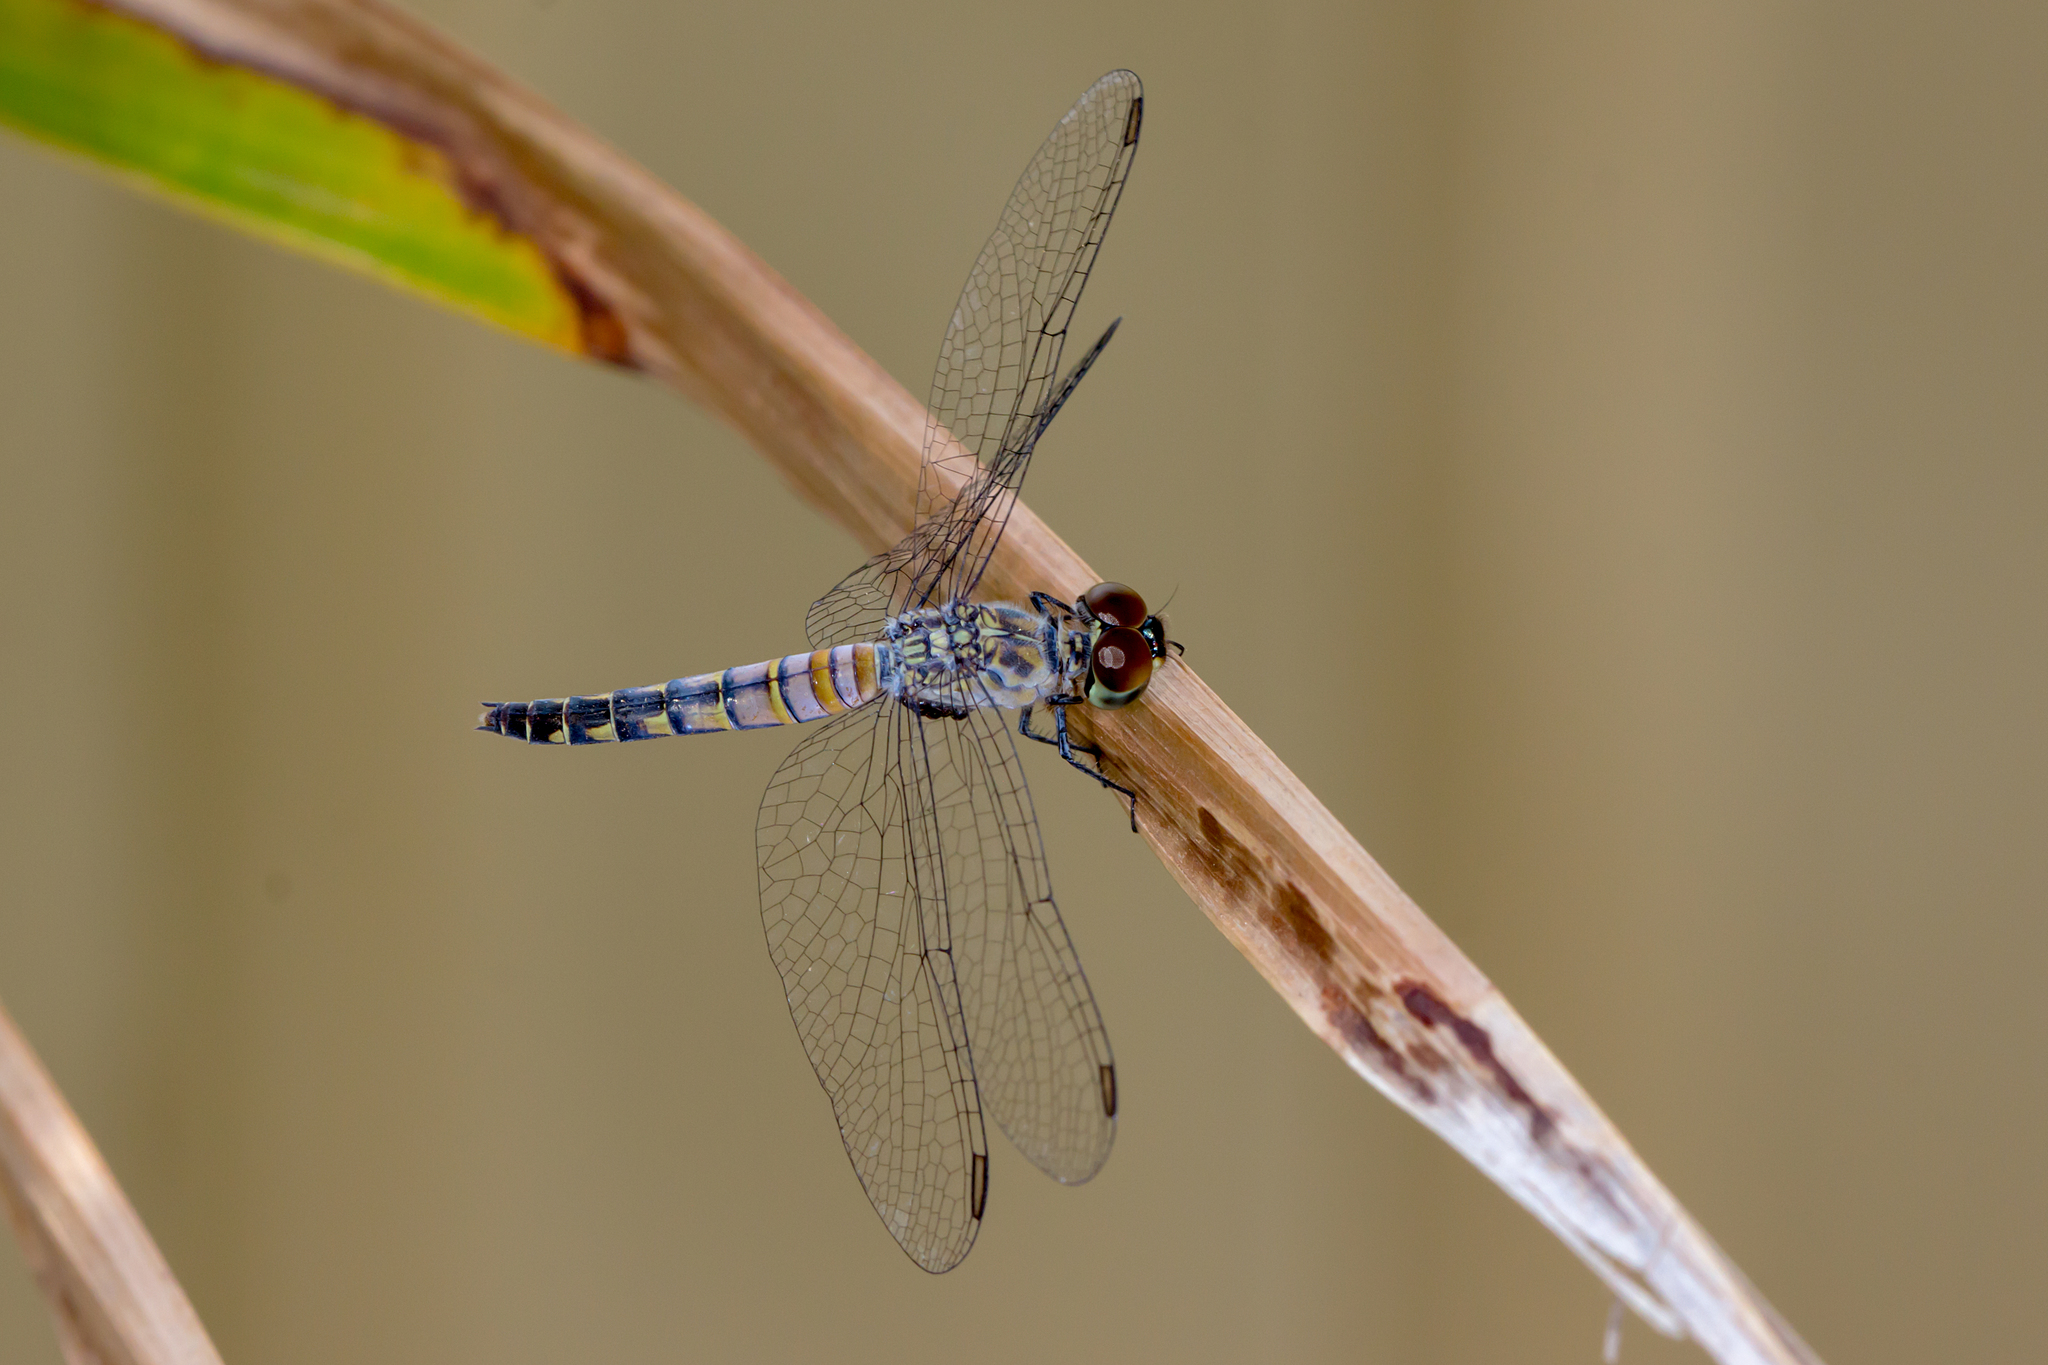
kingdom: Animalia
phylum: Arthropoda
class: Insecta
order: Odonata
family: Libellulidae
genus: Brachydiplax
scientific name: Brachydiplax denticauda
